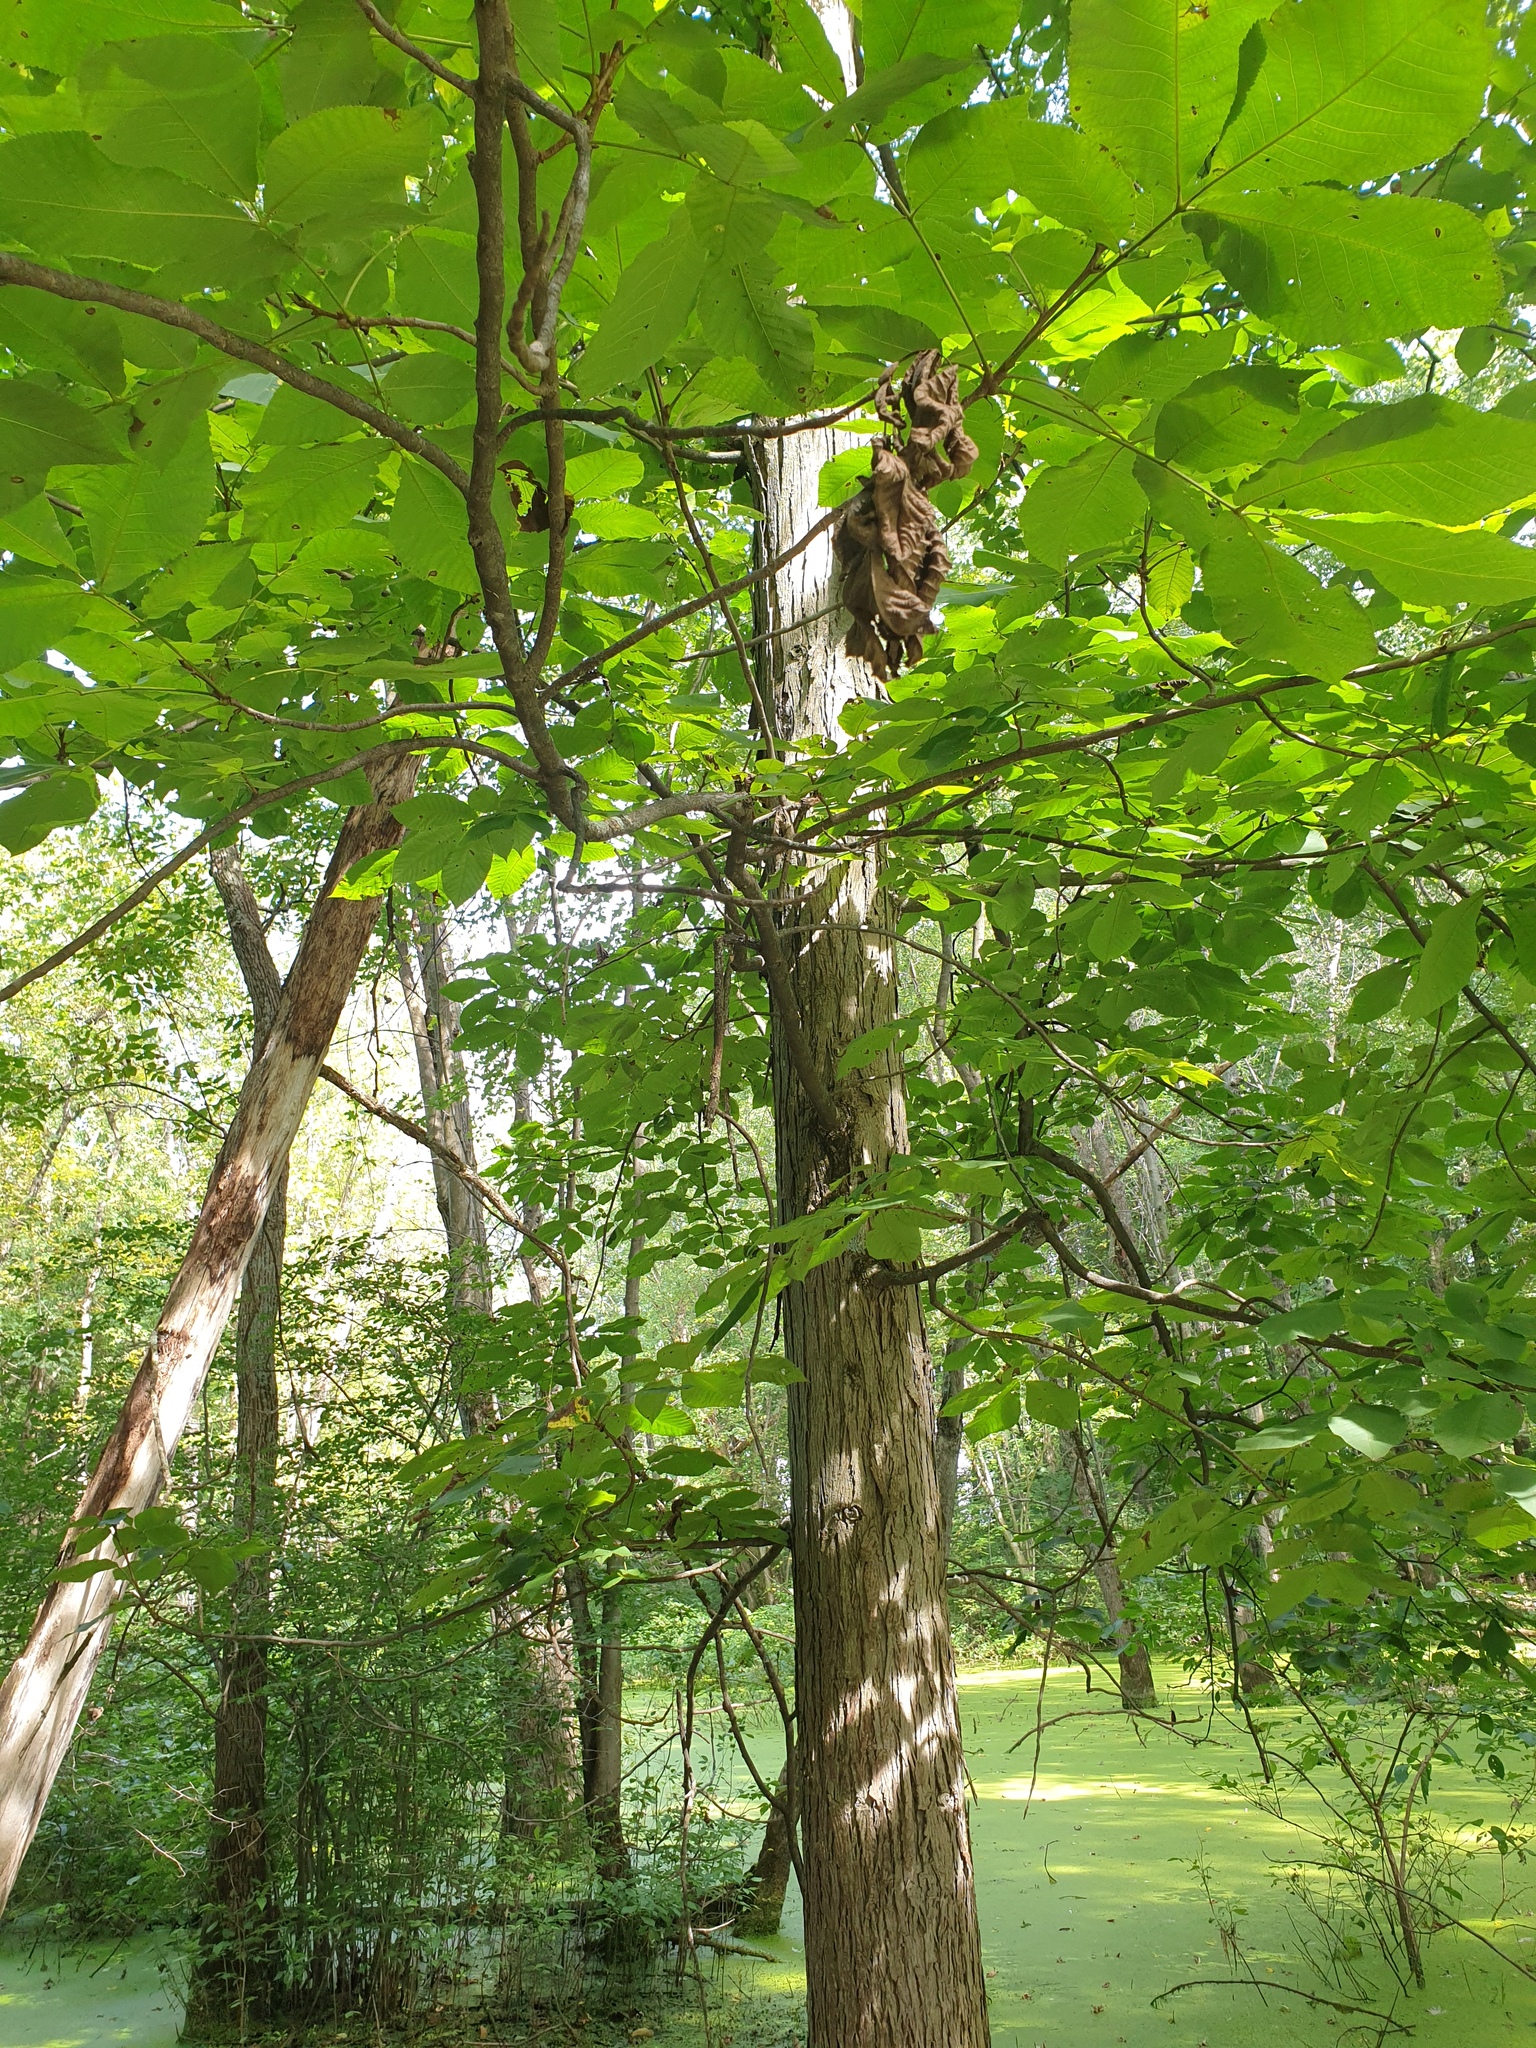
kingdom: Plantae
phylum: Tracheophyta
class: Magnoliopsida
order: Fagales
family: Juglandaceae
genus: Carya
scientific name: Carya ovata
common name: Shagbark hickory
